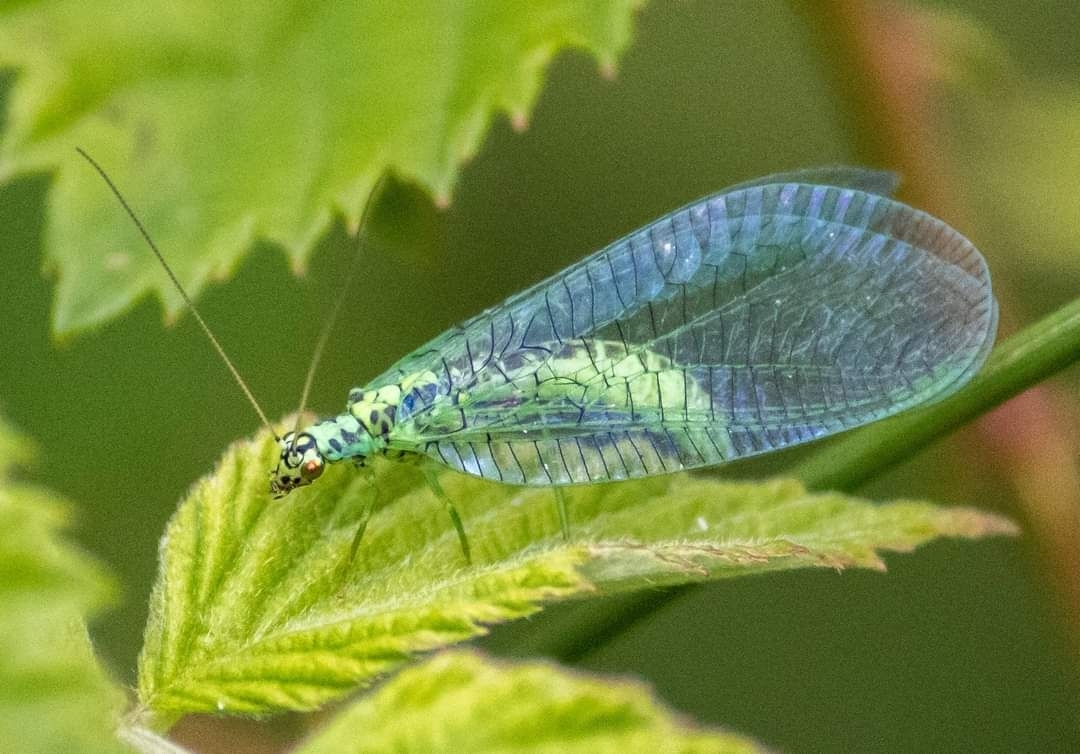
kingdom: Animalia
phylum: Arthropoda
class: Insecta
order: Neuroptera
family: Chrysopidae
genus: Chrysopa
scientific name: Chrysopa perla
